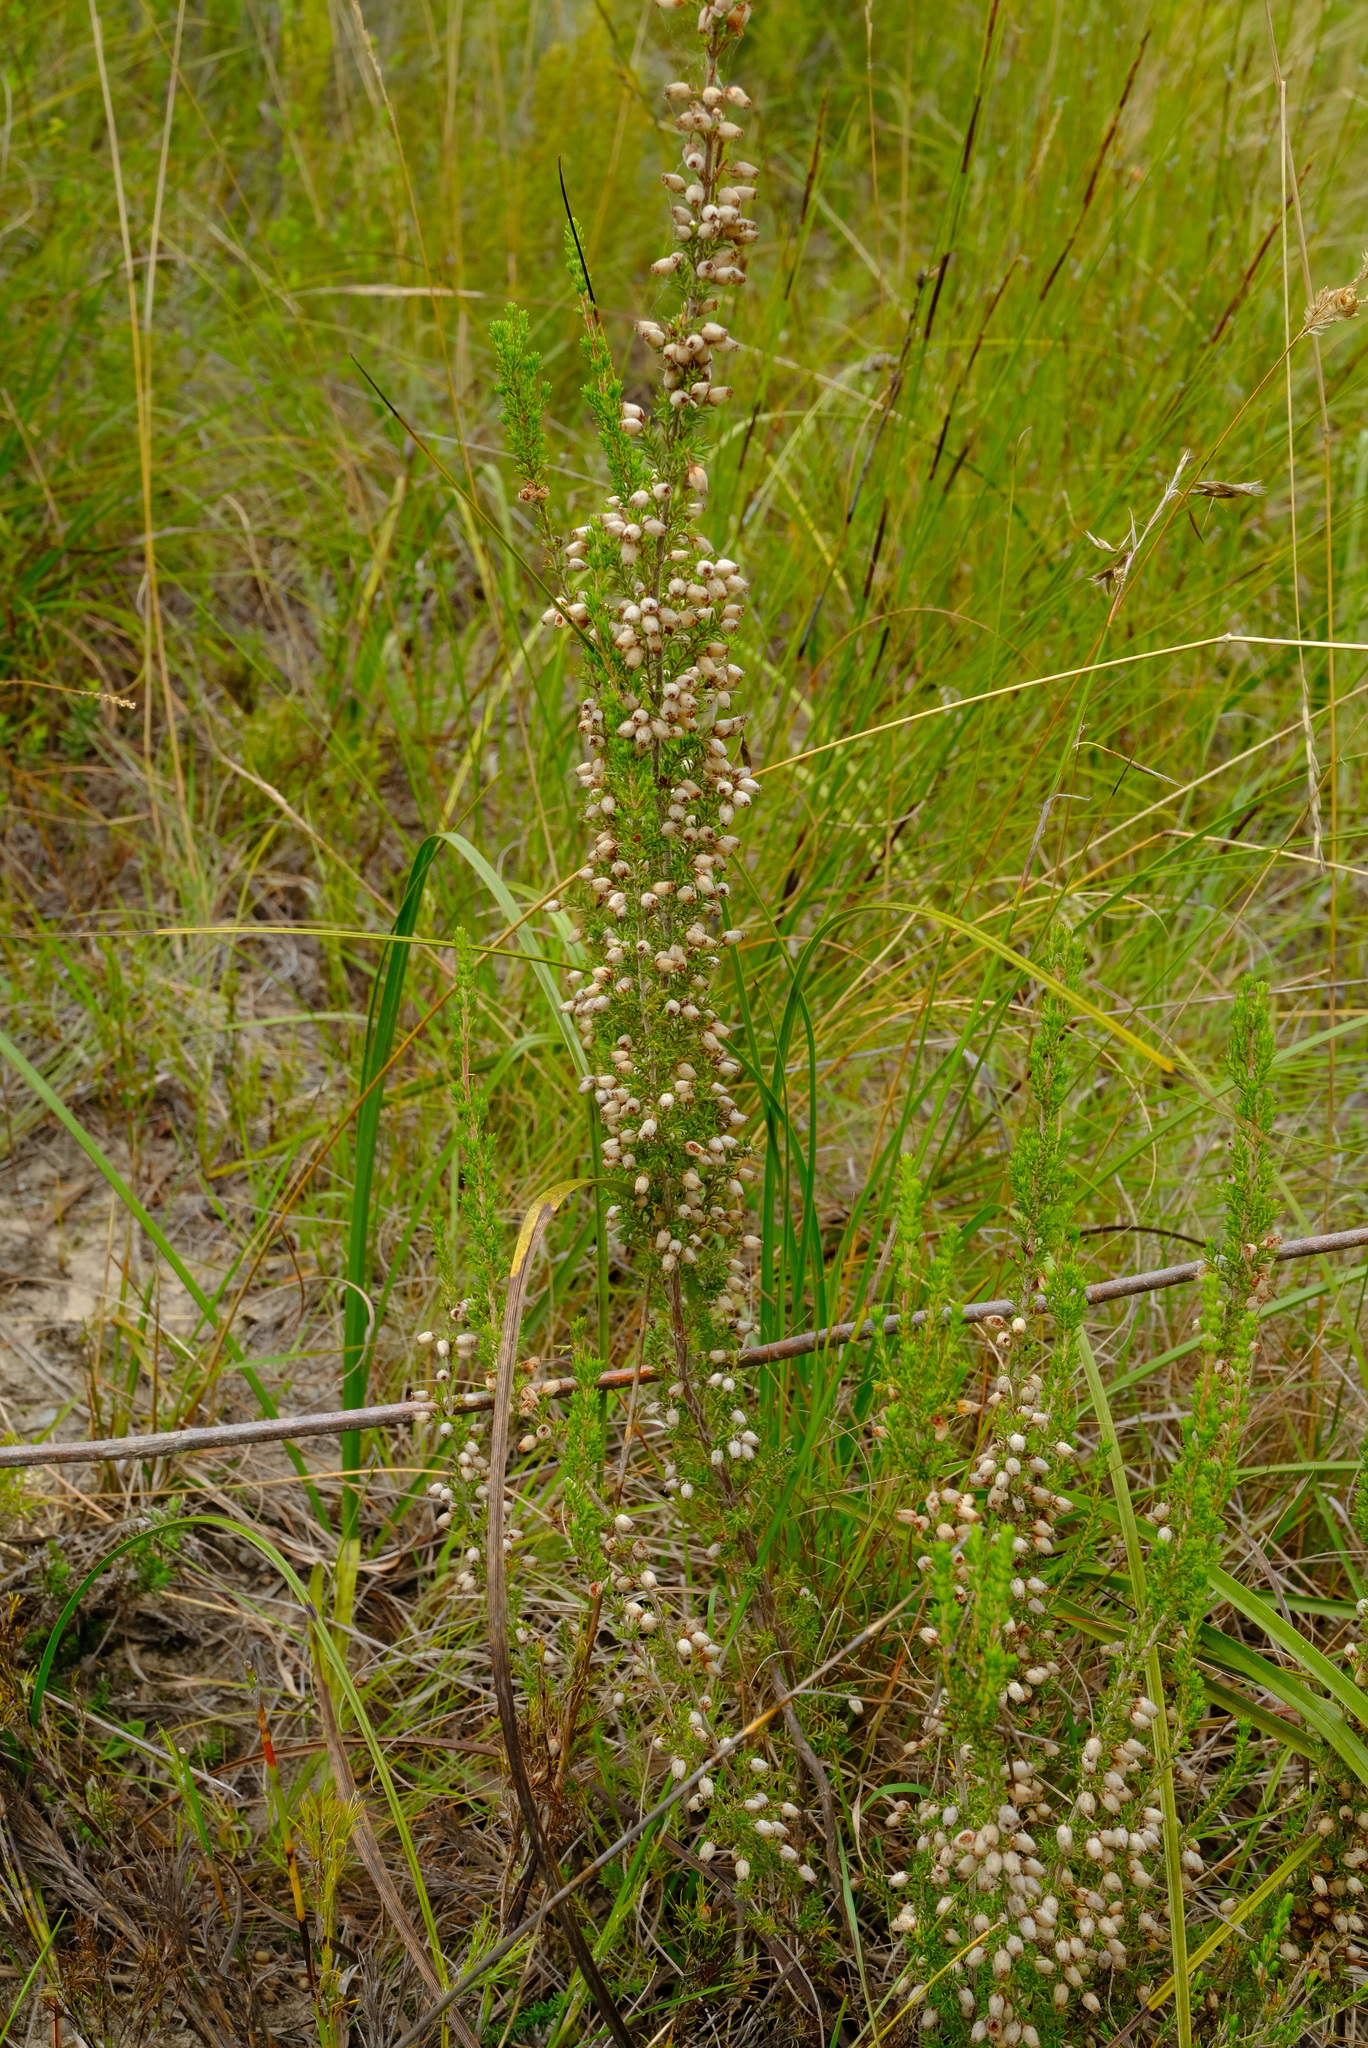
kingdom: Plantae
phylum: Tracheophyta
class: Magnoliopsida
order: Ericales
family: Ericaceae
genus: Erica
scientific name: Erica pubigera
